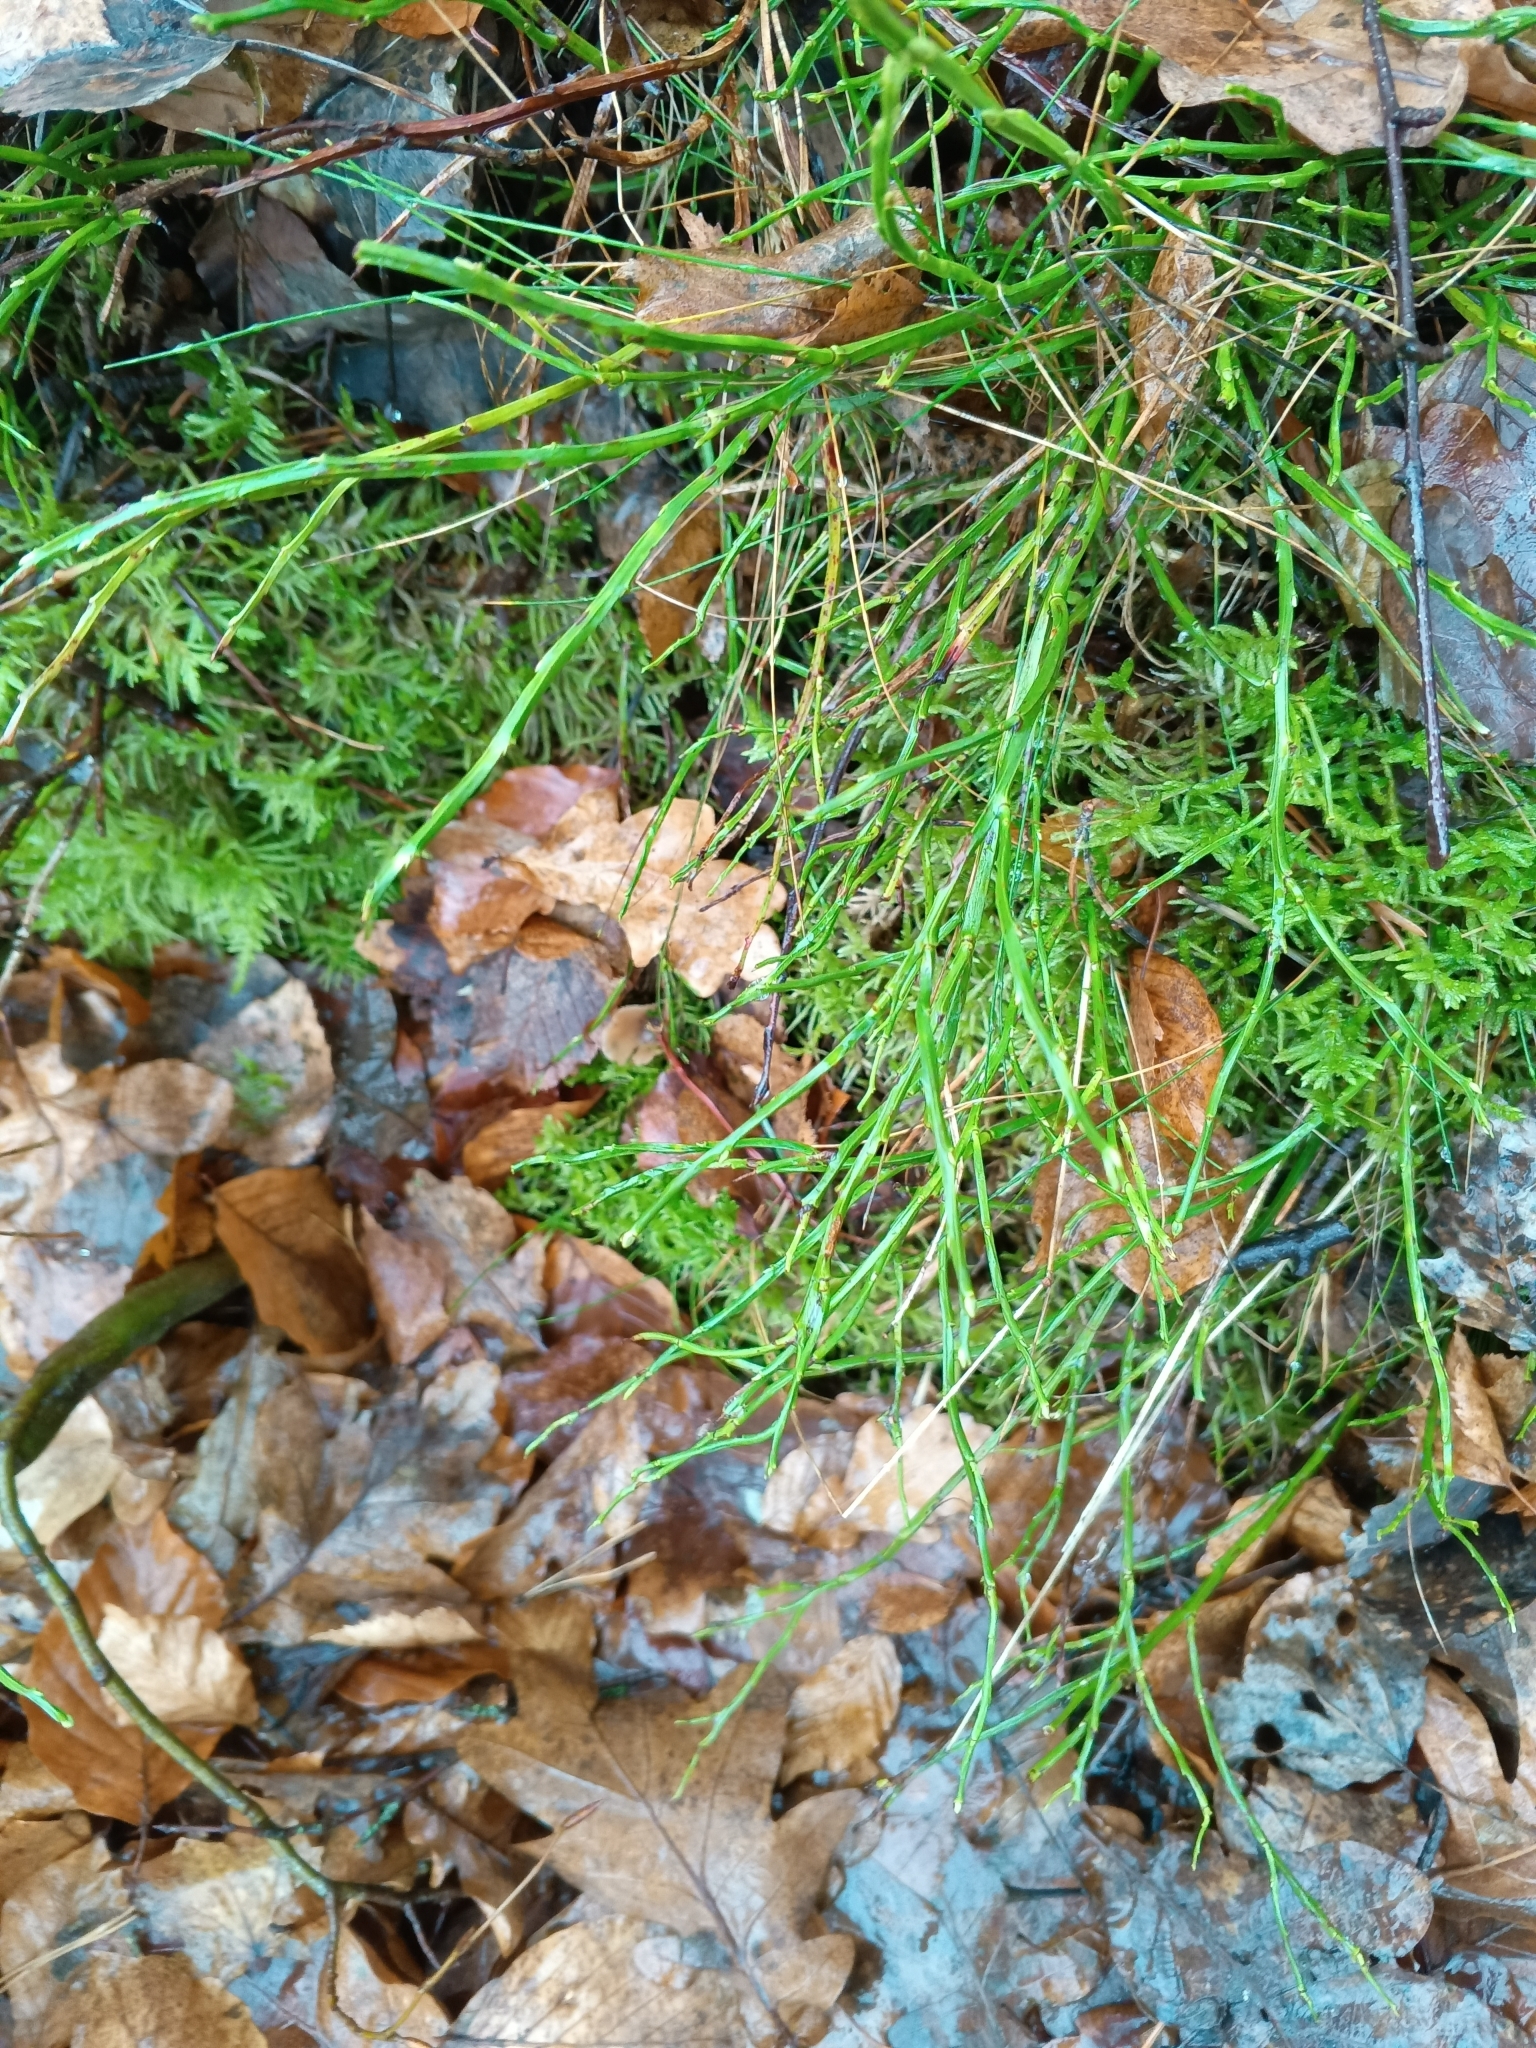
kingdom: Plantae
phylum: Tracheophyta
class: Magnoliopsida
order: Ericales
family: Ericaceae
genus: Vaccinium
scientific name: Vaccinium myrtillus
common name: Bilberry
